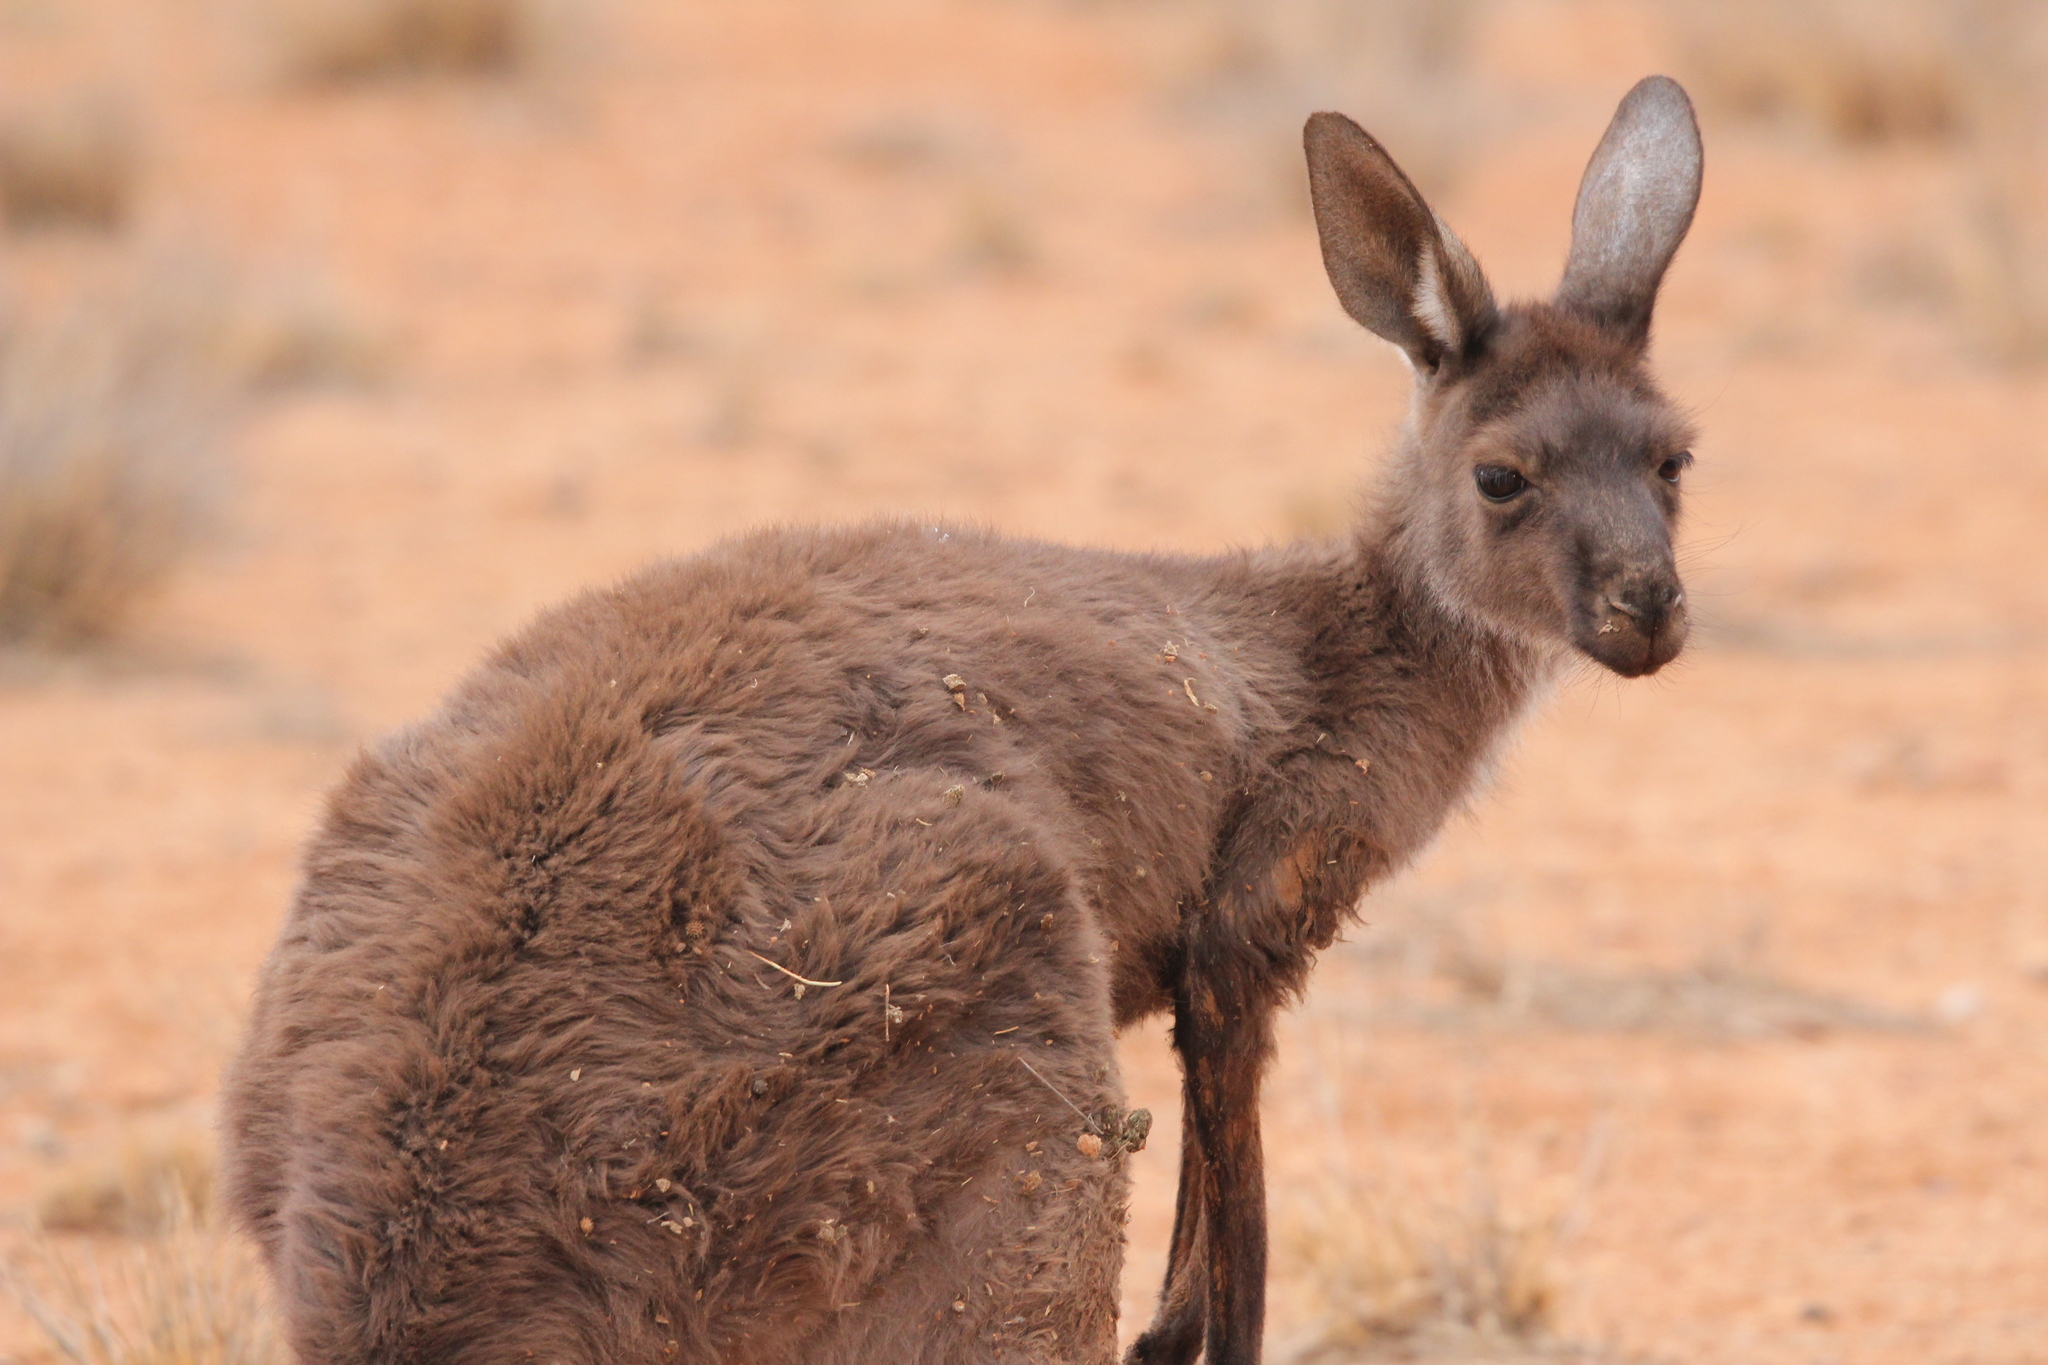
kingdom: Animalia
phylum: Chordata
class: Mammalia
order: Diprotodontia
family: Macropodidae
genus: Macropus
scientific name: Macropus fuliginosus
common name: Western grey kangaroo
